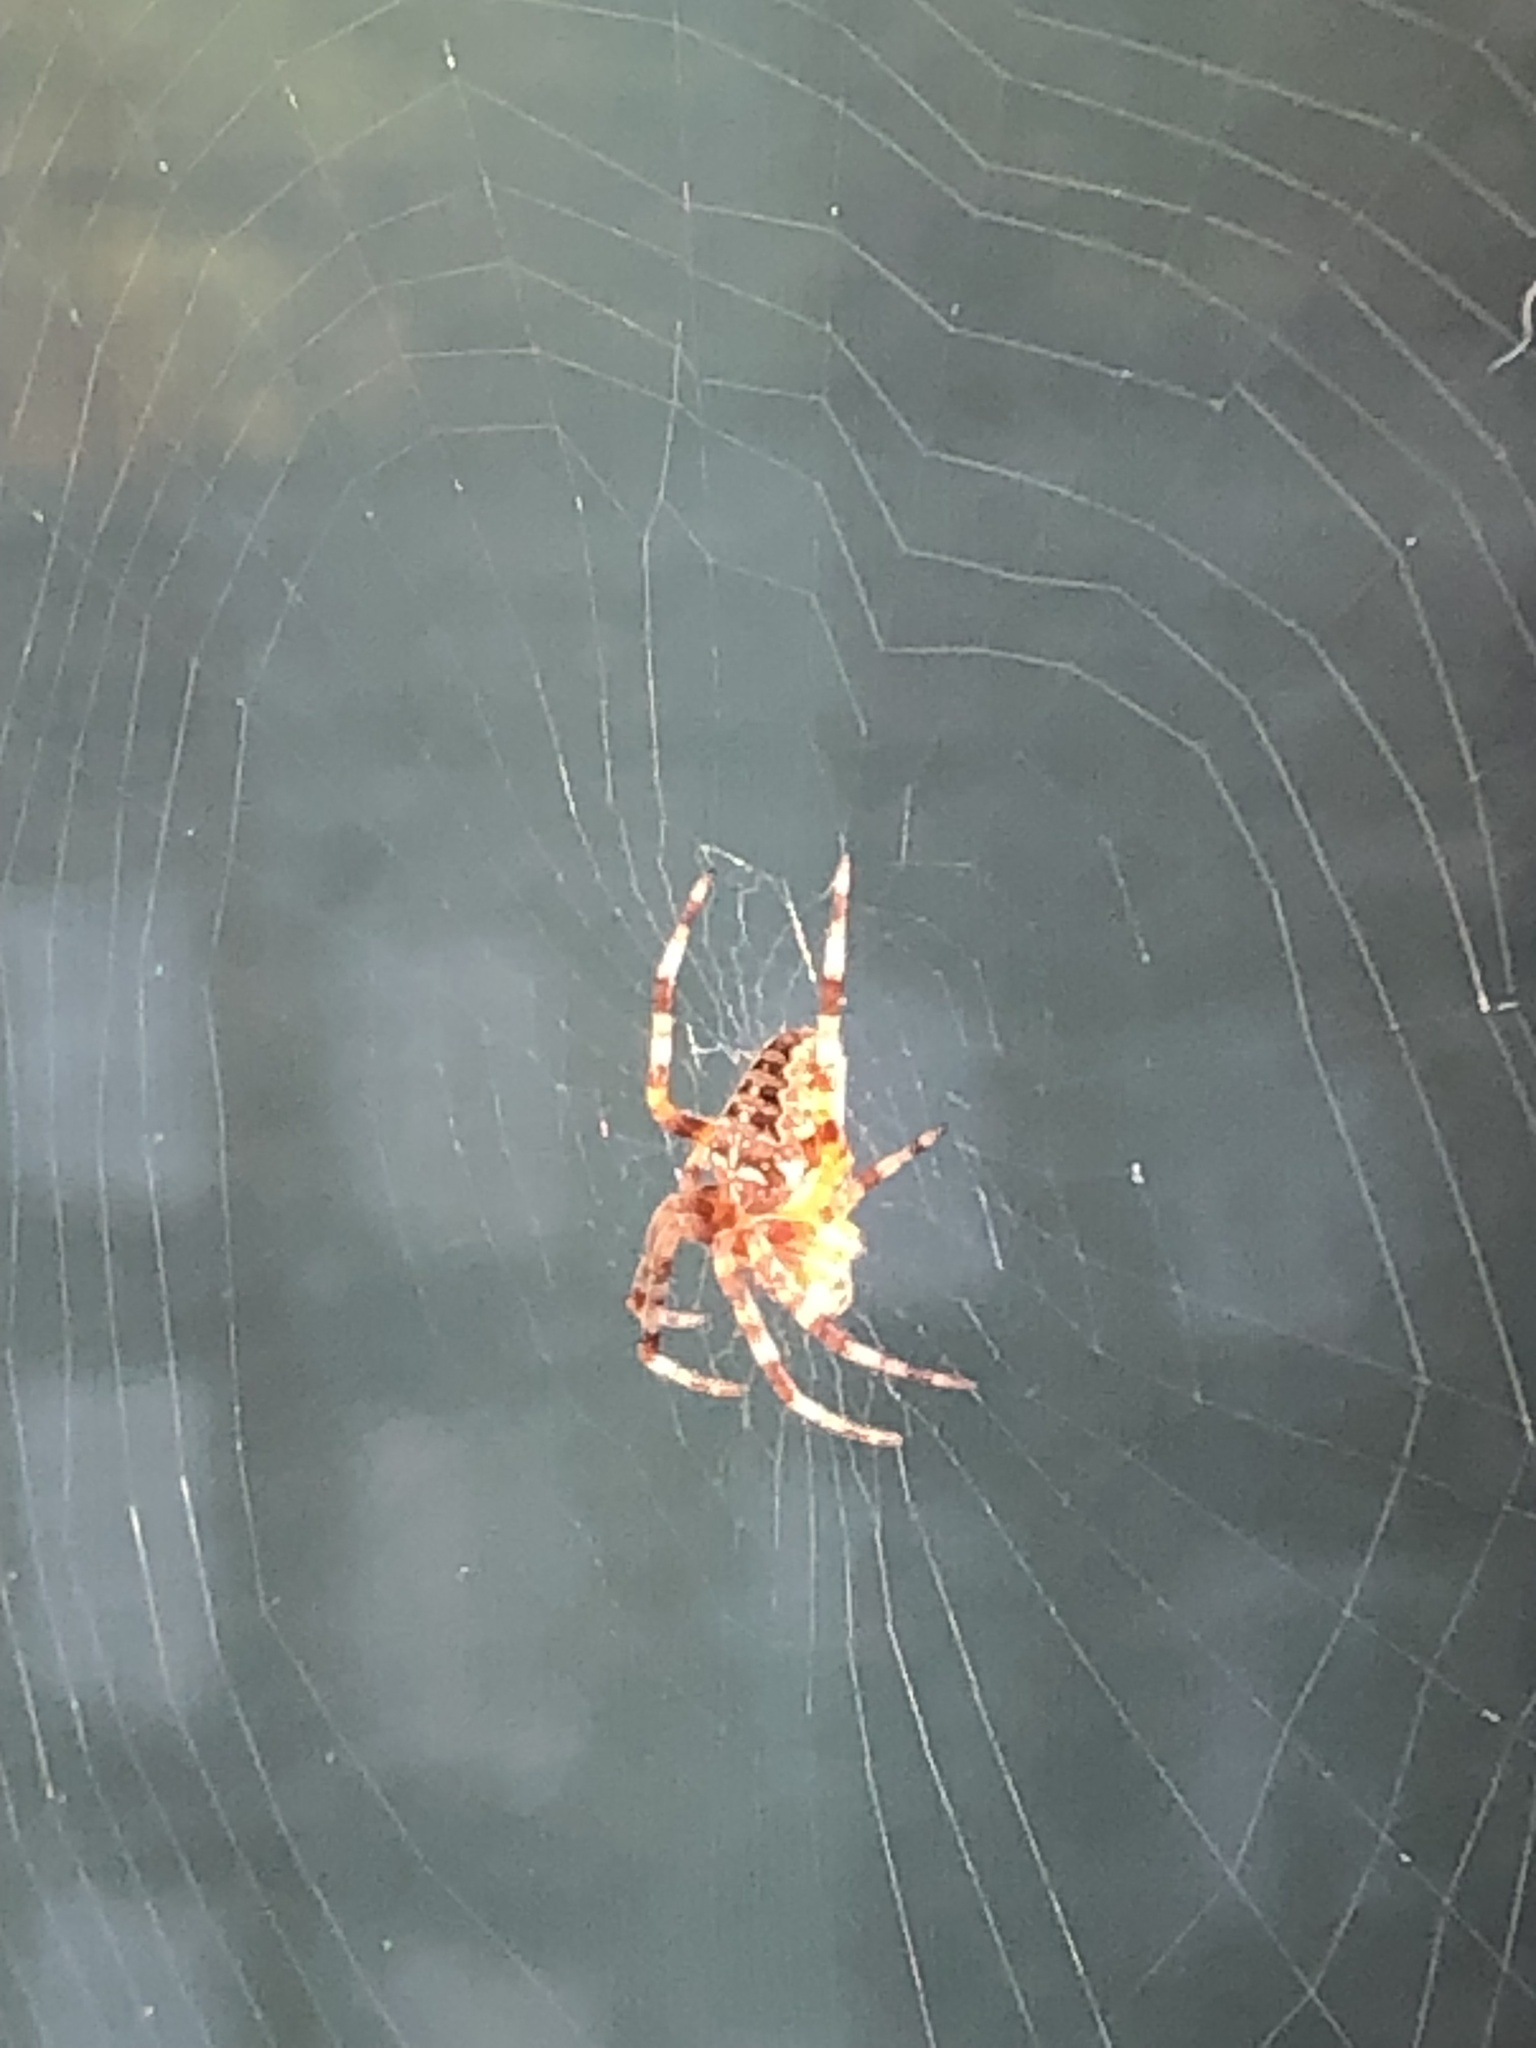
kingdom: Animalia
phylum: Arthropoda
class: Arachnida
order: Araneae
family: Araneidae
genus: Neoscona
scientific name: Neoscona crucifera
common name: Spotted orbweaver
